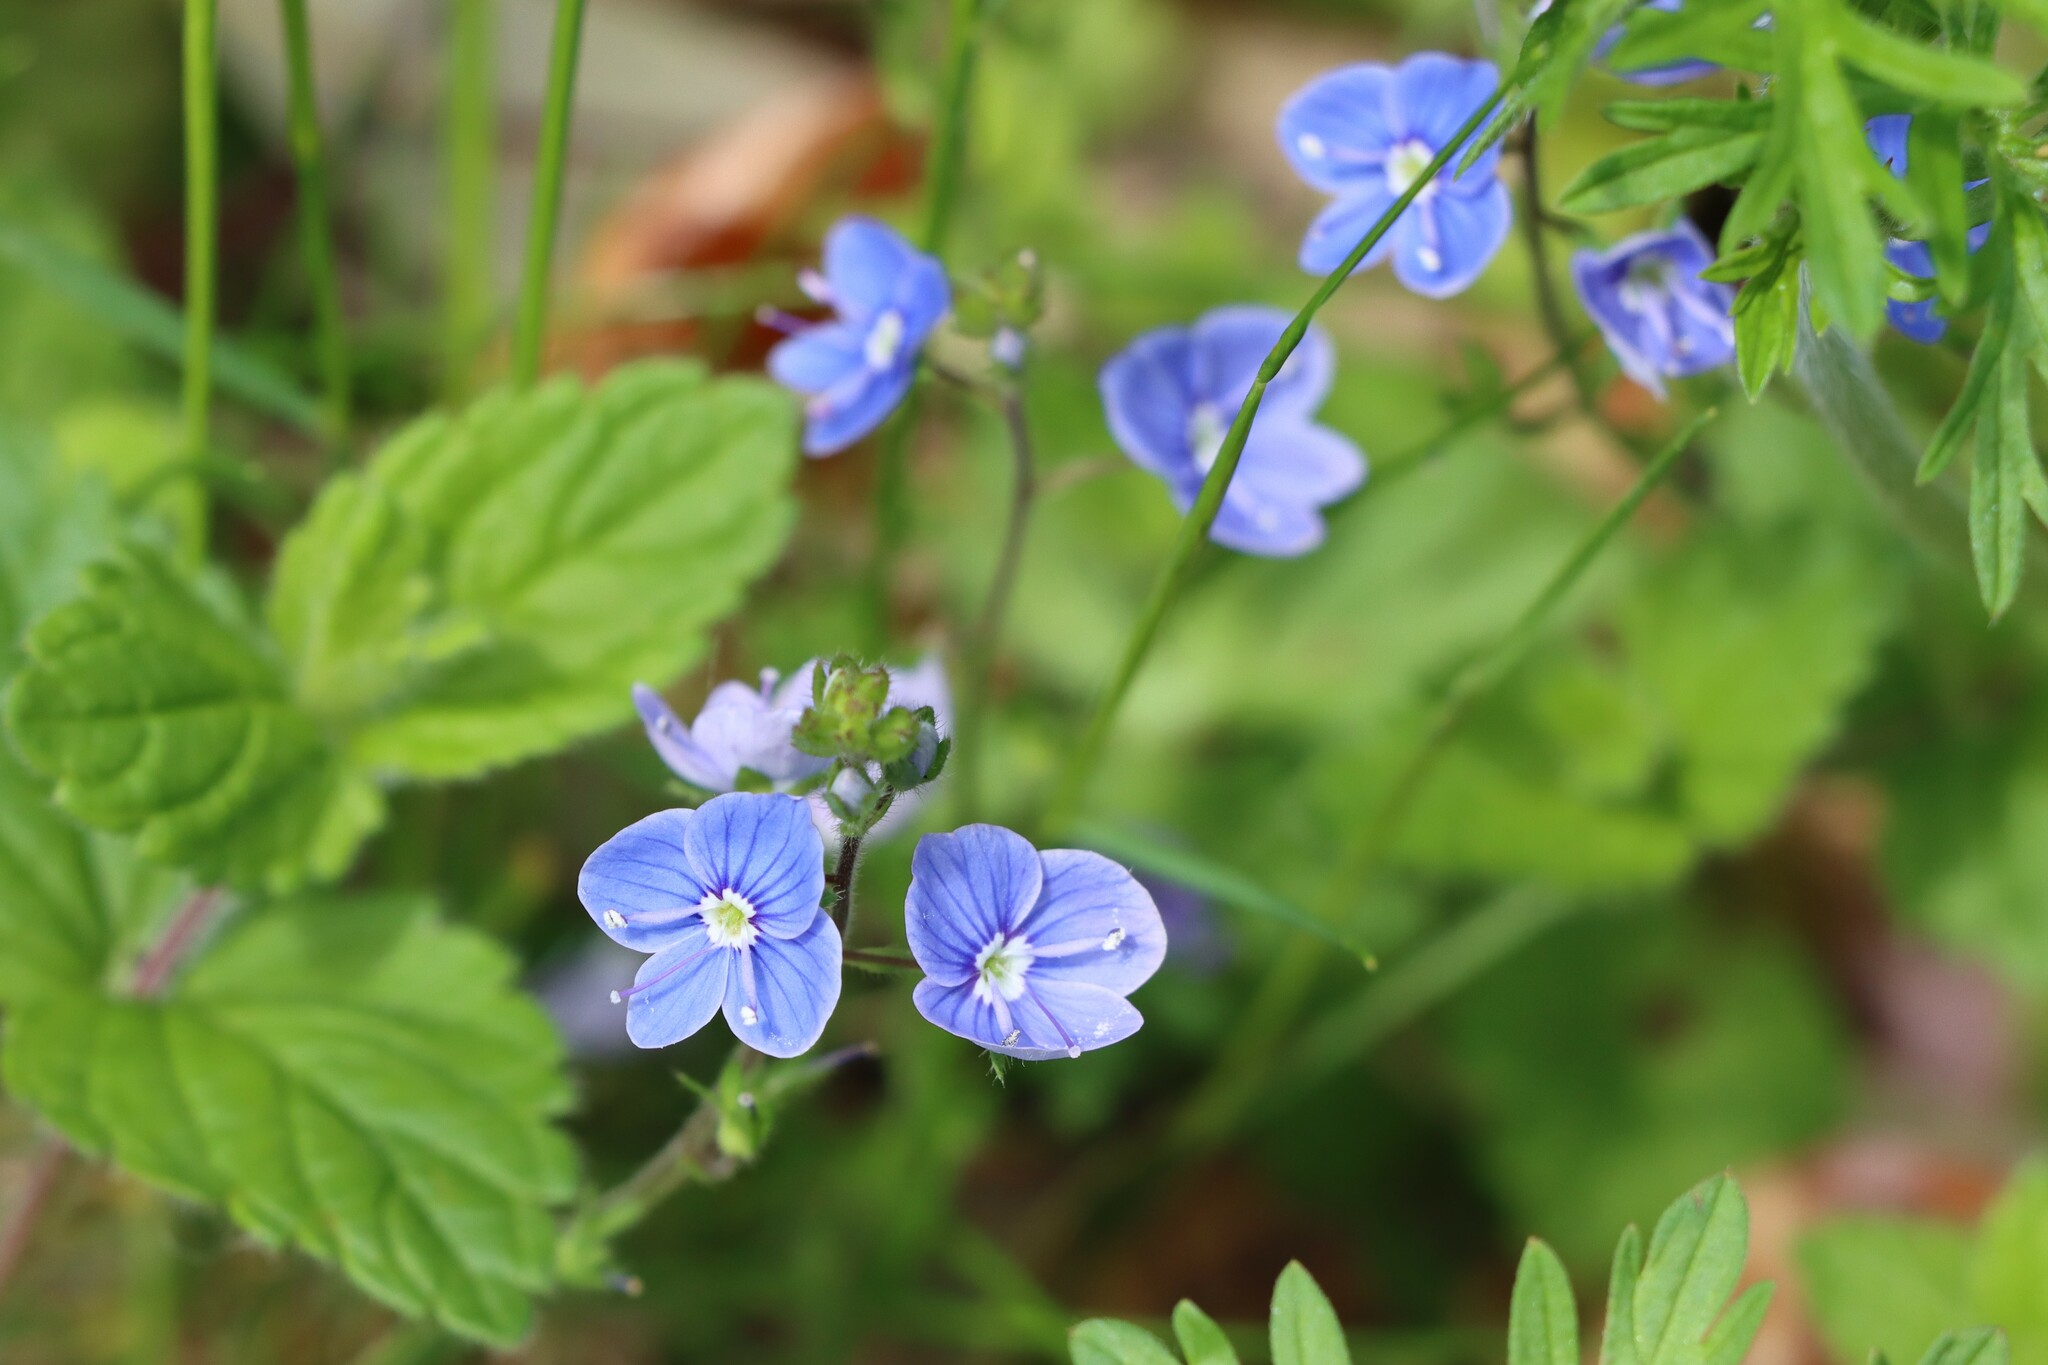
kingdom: Plantae
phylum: Tracheophyta
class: Magnoliopsida
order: Lamiales
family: Plantaginaceae
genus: Veronica
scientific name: Veronica chamaedrys
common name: Germander speedwell
